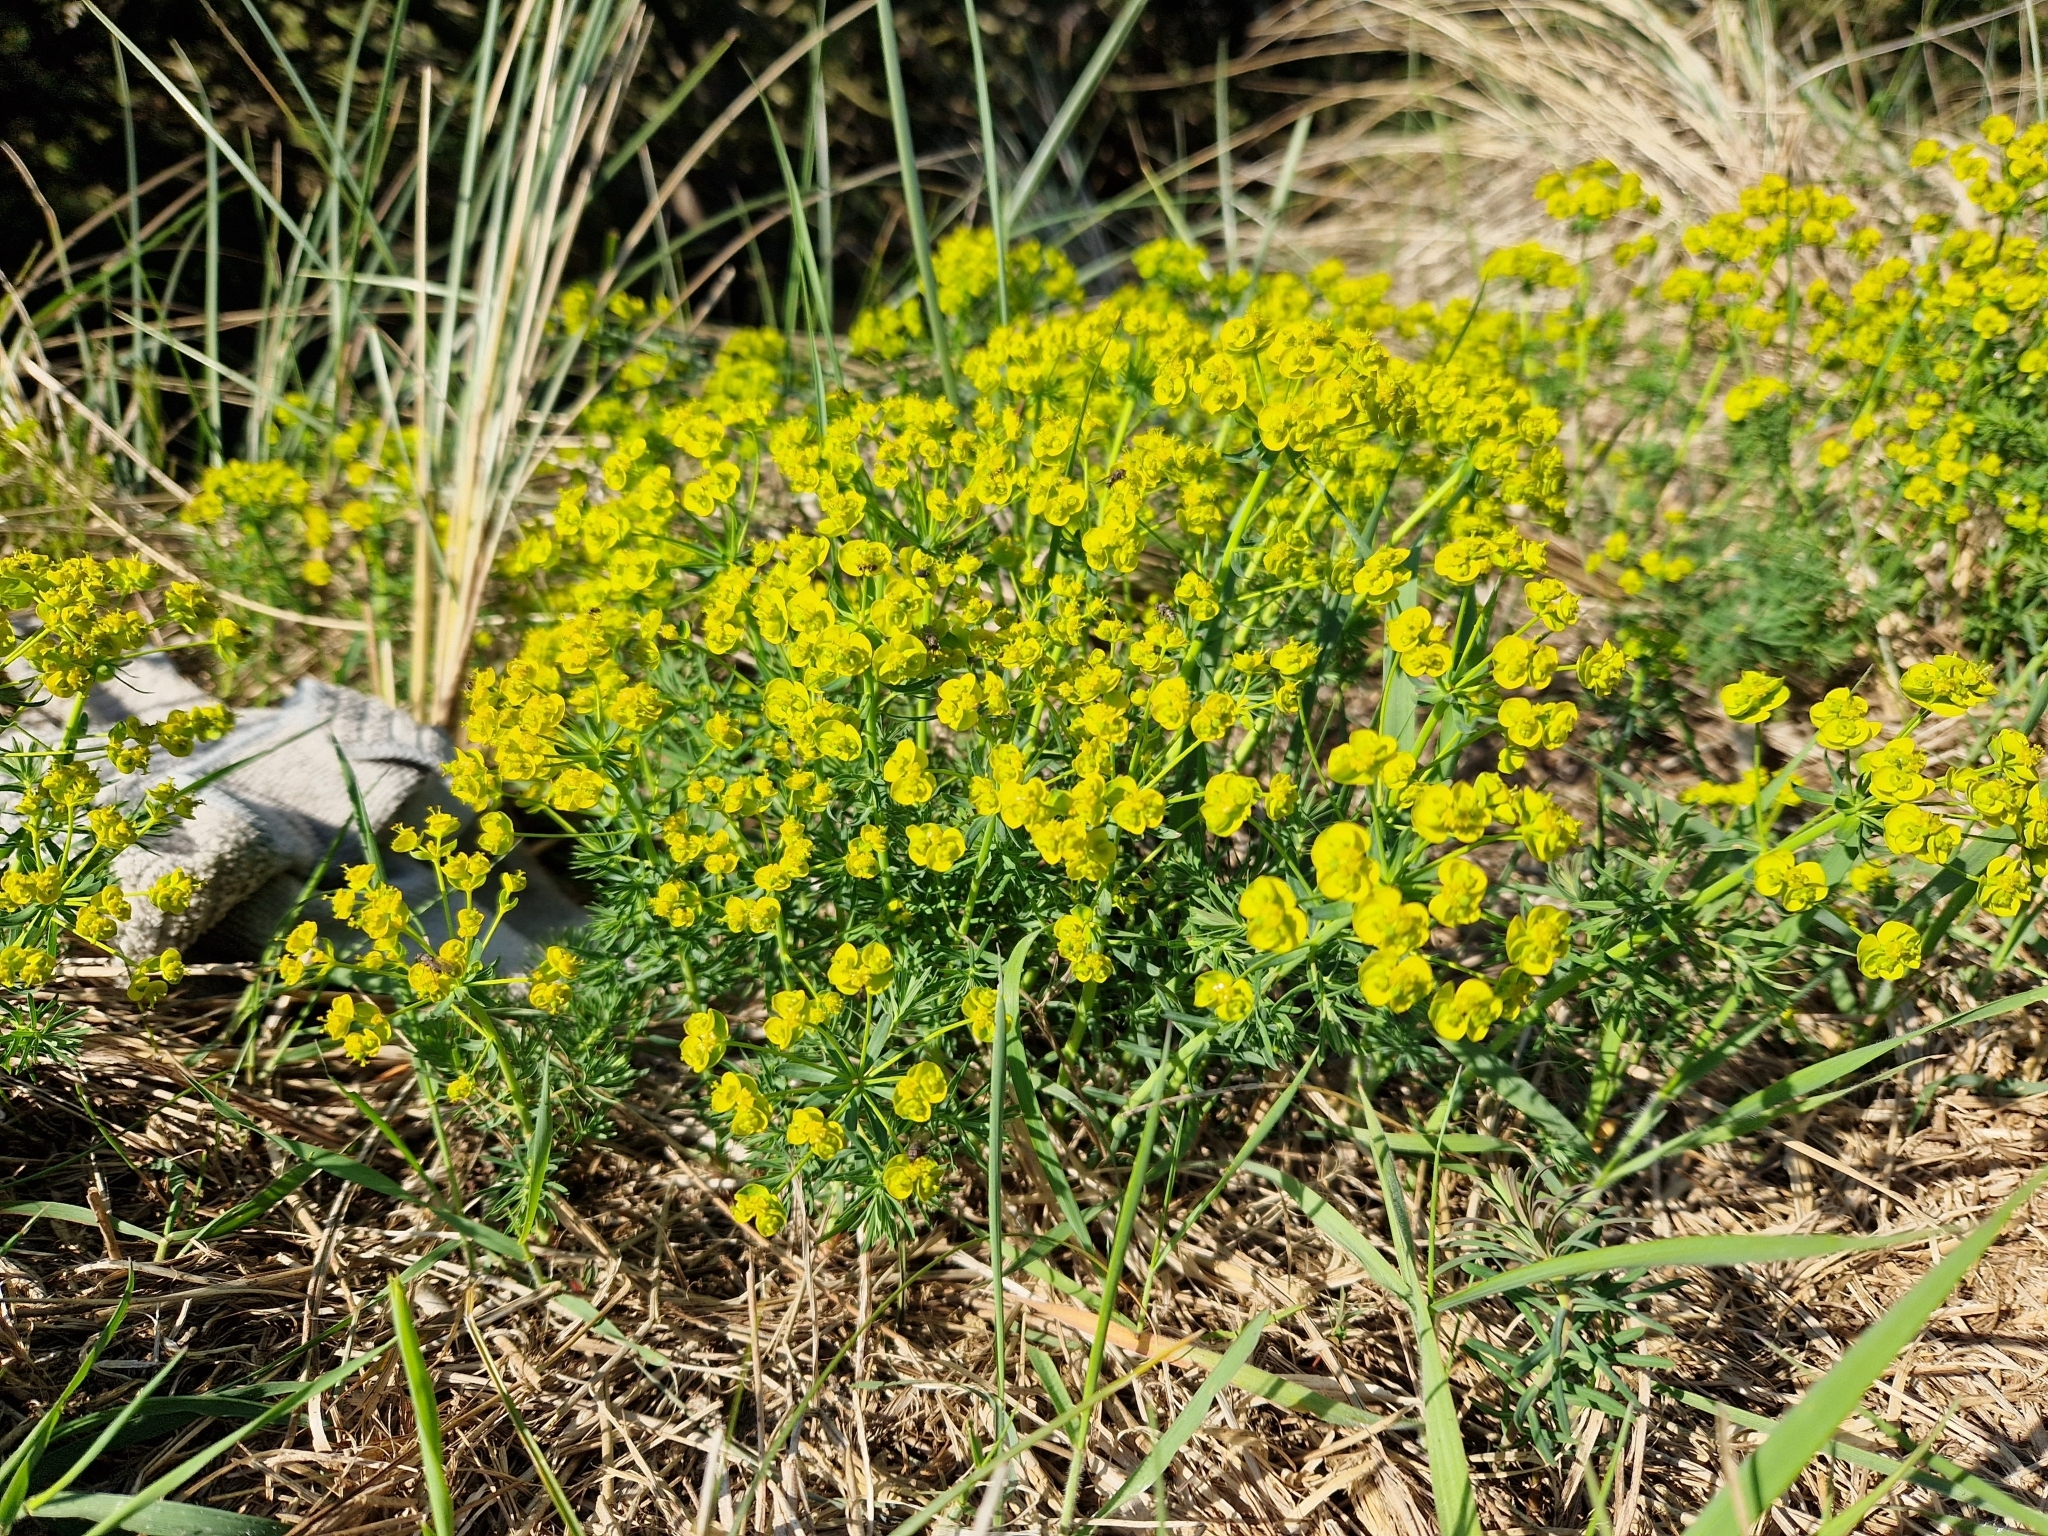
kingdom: Plantae
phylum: Tracheophyta
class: Magnoliopsida
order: Malpighiales
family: Euphorbiaceae
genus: Euphorbia
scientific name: Euphorbia cyparissias
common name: Cypress spurge
